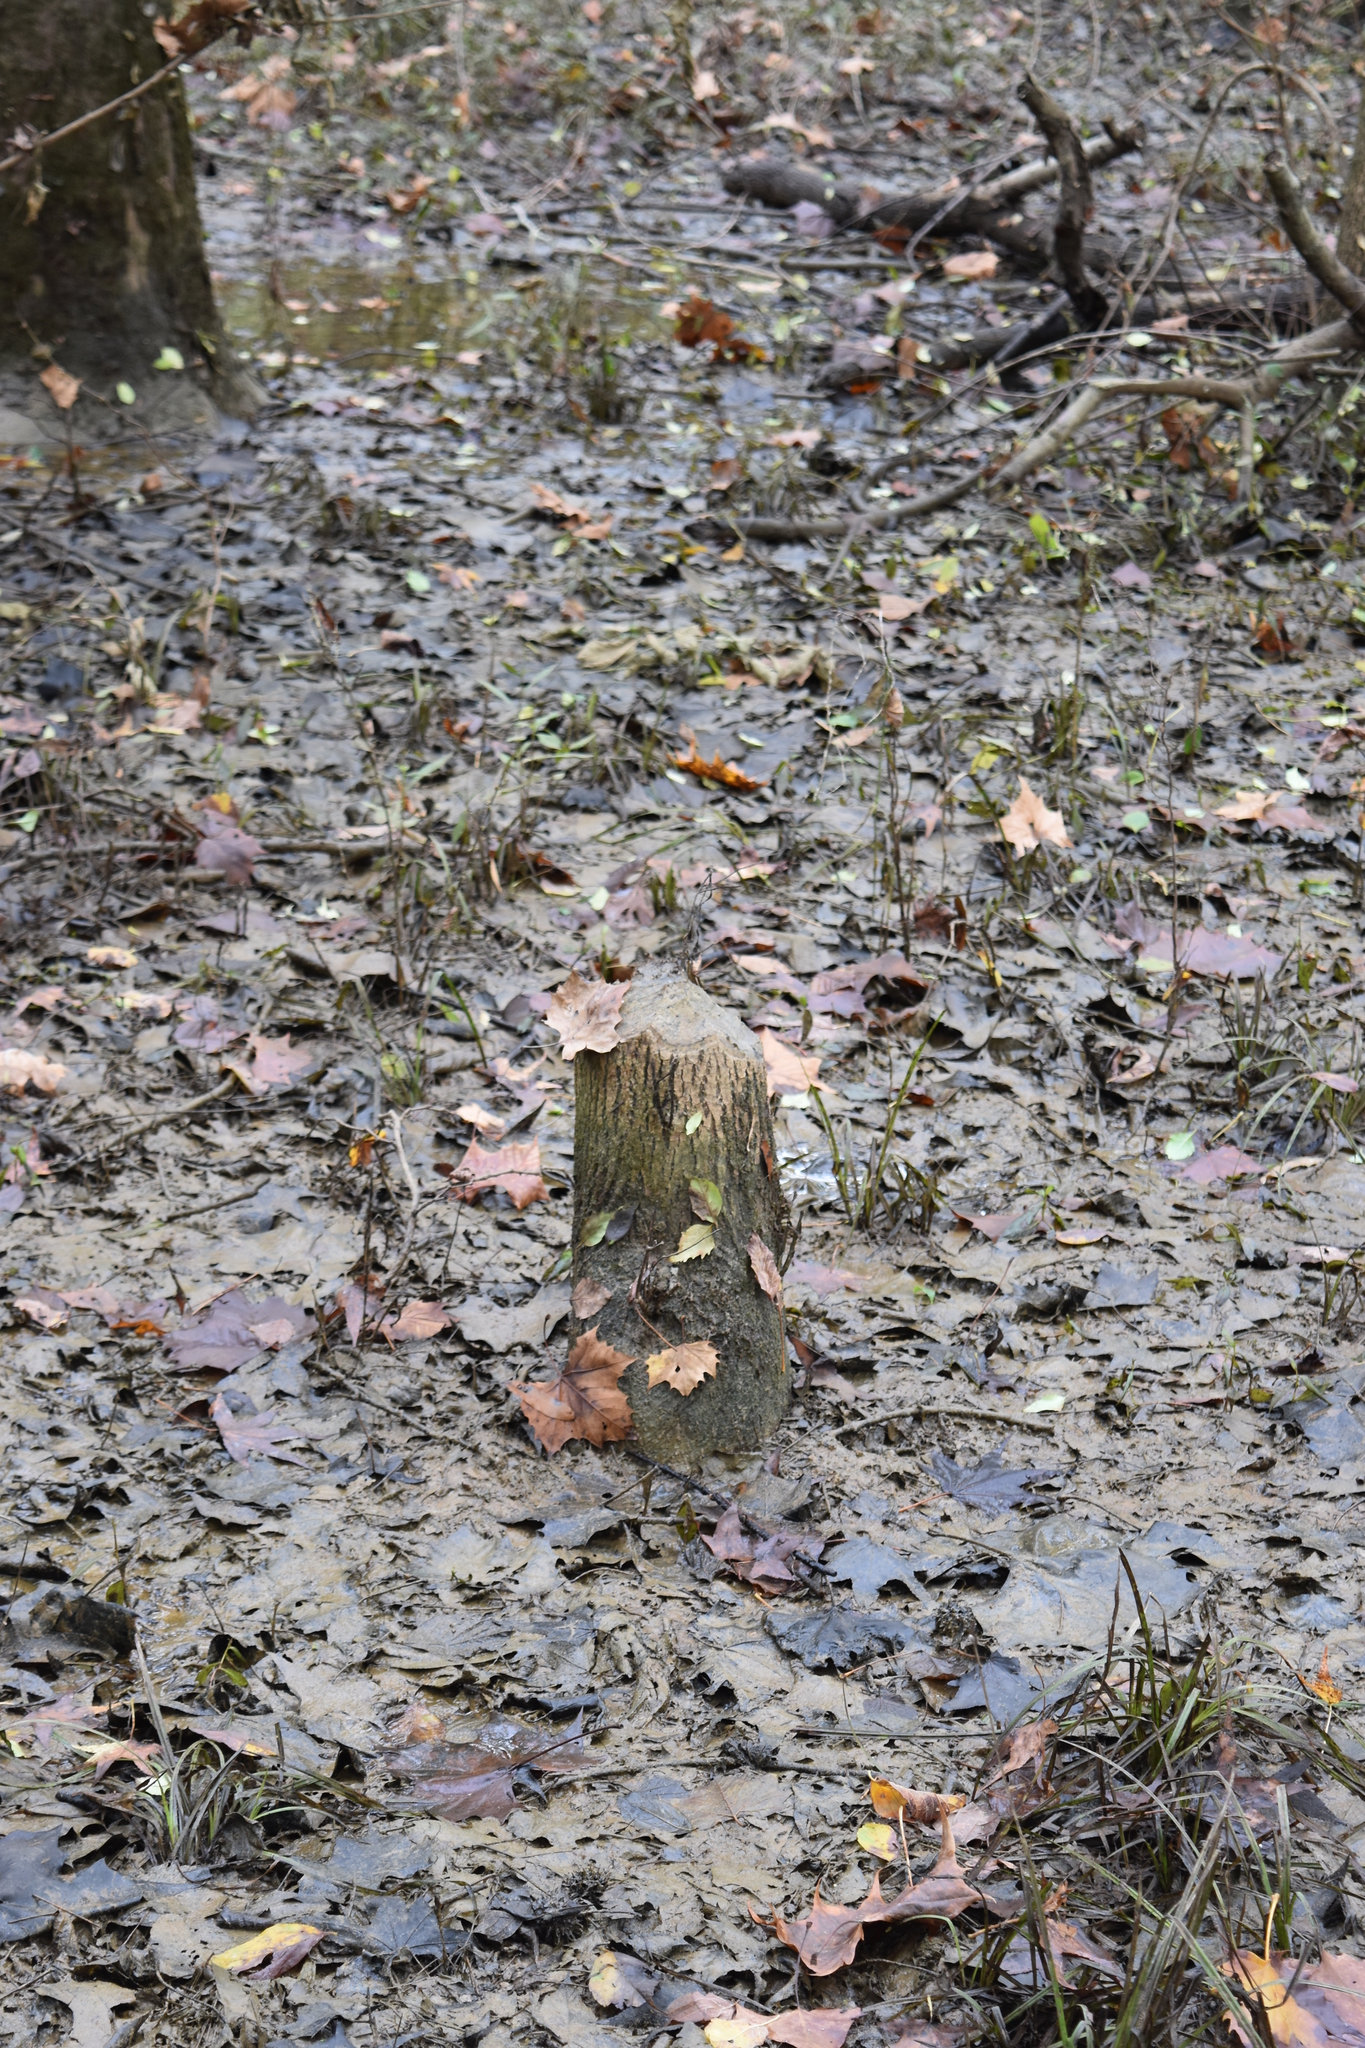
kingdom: Animalia
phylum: Chordata
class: Mammalia
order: Rodentia
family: Castoridae
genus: Castor
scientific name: Castor canadensis
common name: American beaver
